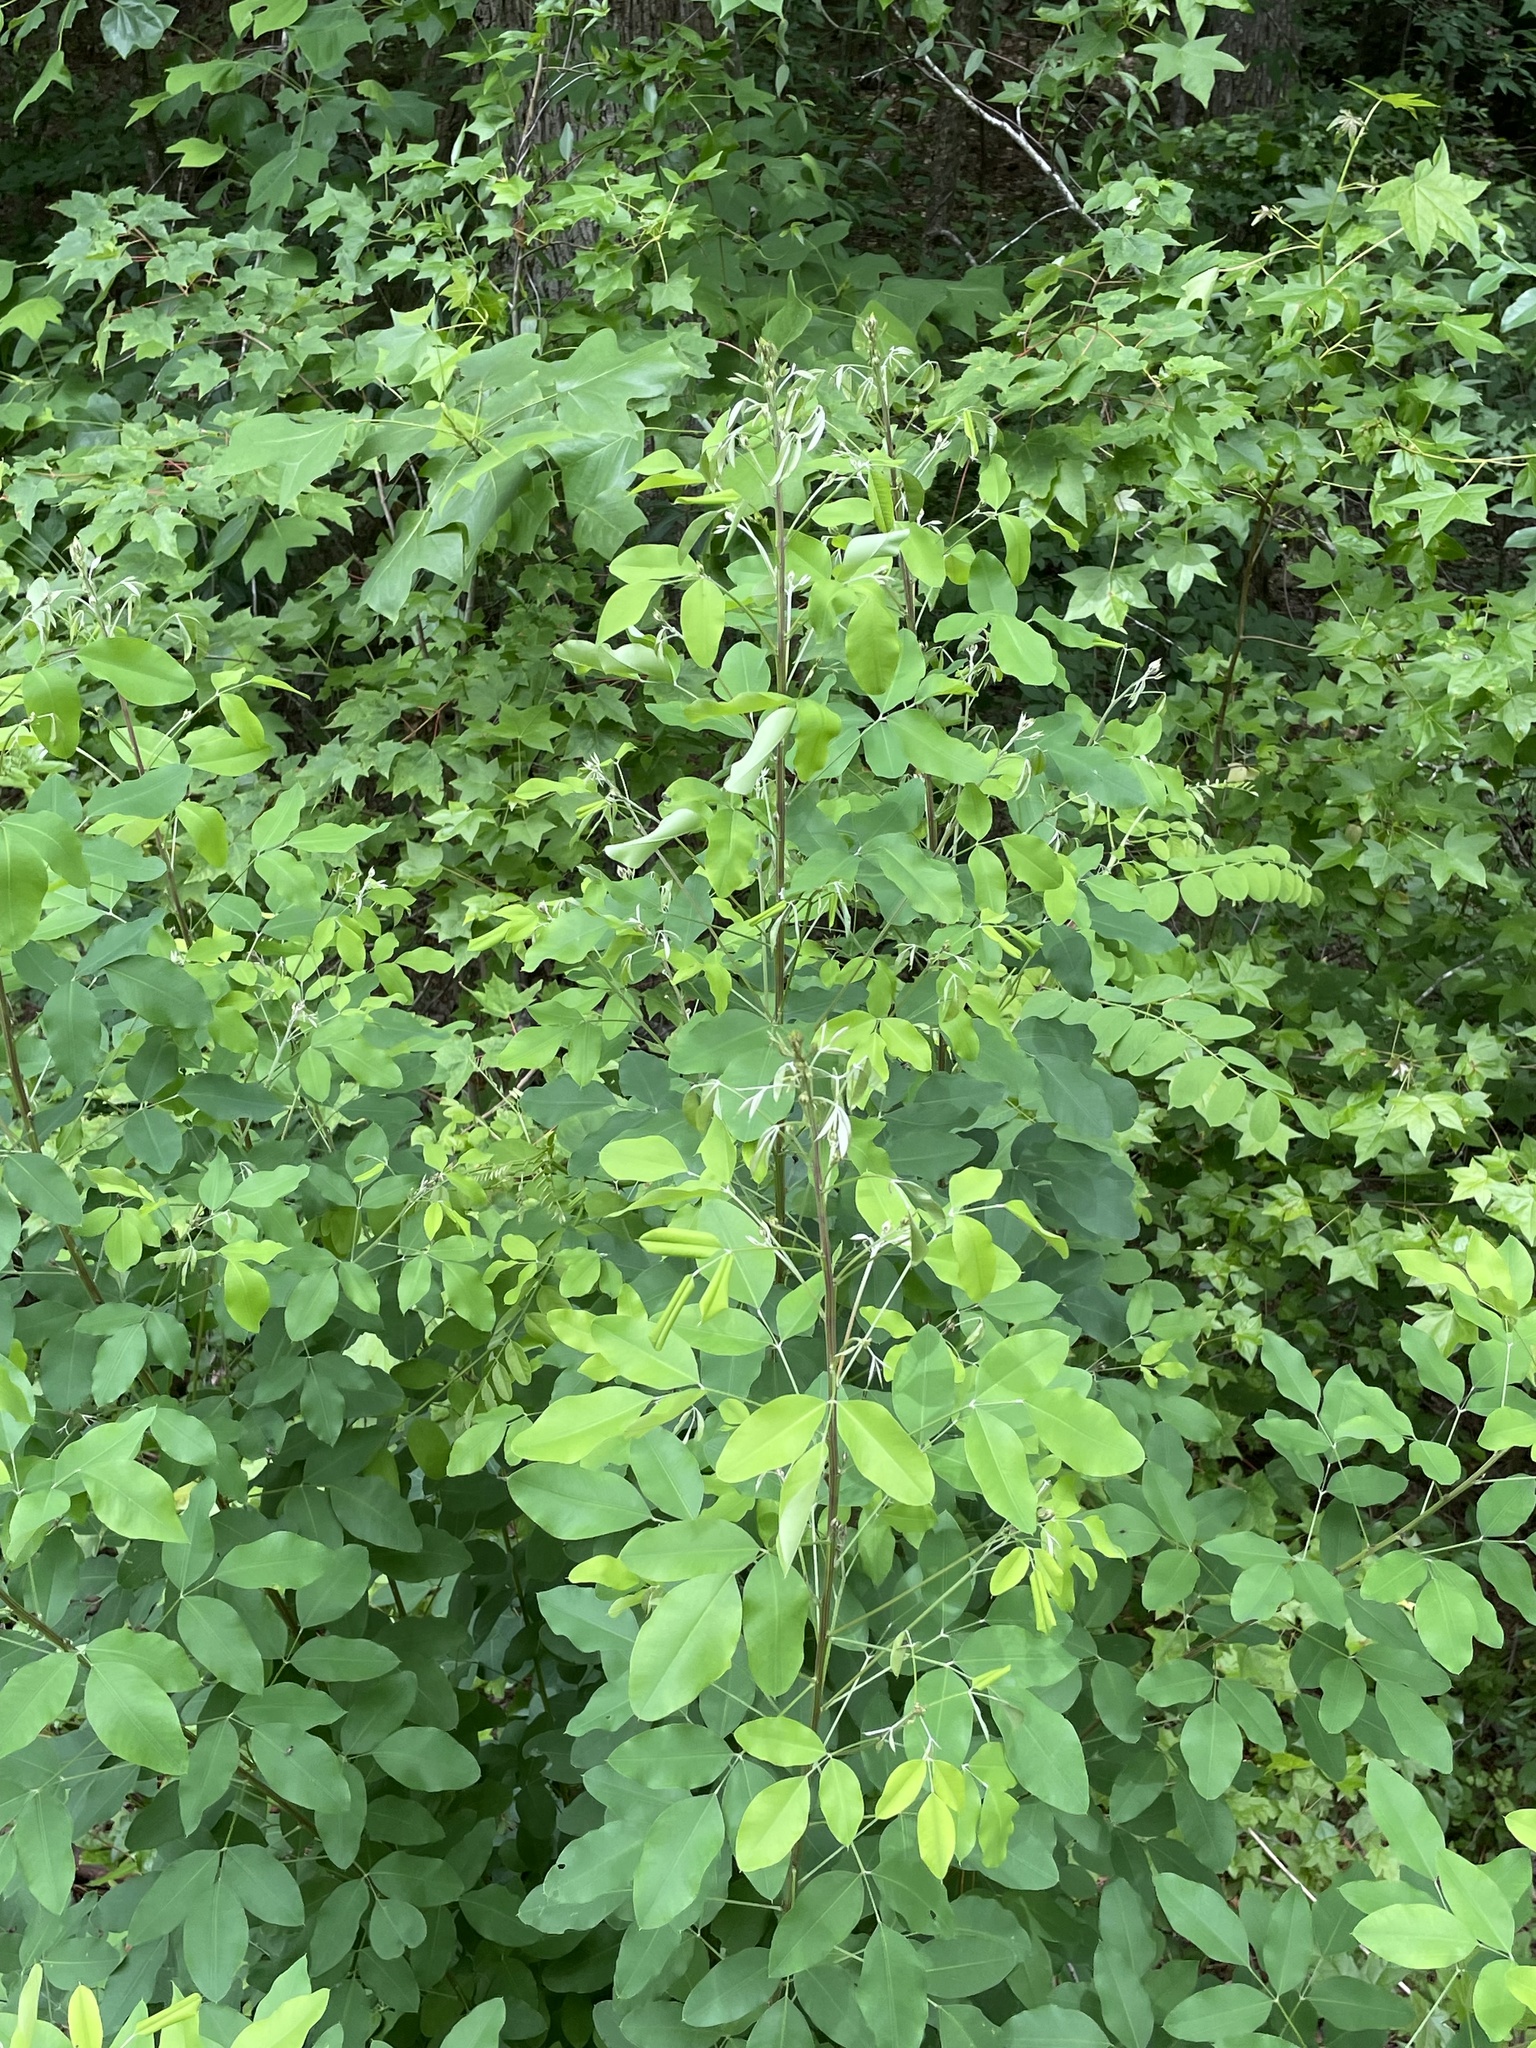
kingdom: Plantae
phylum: Tracheophyta
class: Magnoliopsida
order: Fabales
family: Fabaceae
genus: Lespedeza
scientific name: Lespedeza bicolor
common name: Shrub lespedeza
